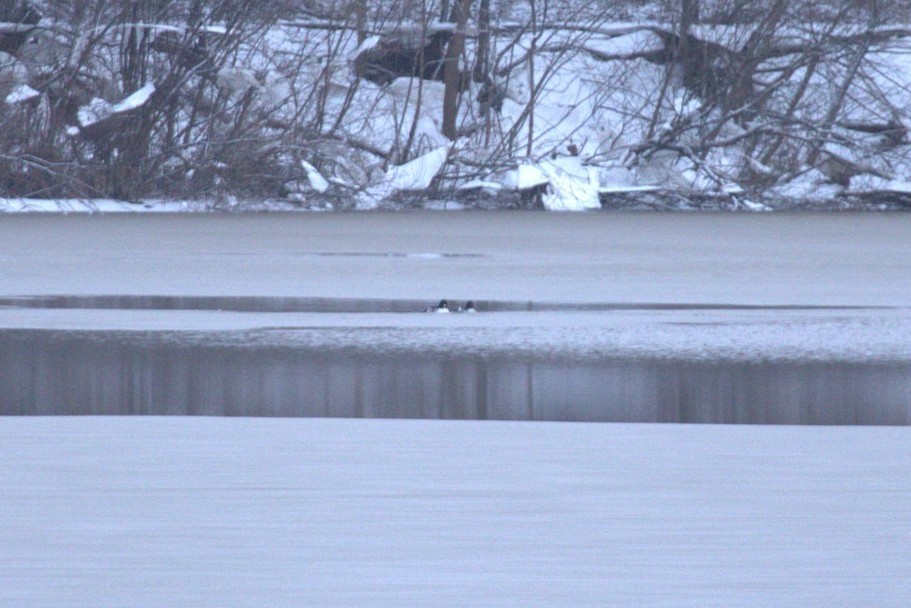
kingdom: Animalia
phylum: Chordata
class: Aves
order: Anseriformes
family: Anatidae
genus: Bucephala
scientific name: Bucephala clangula
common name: Common goldeneye
